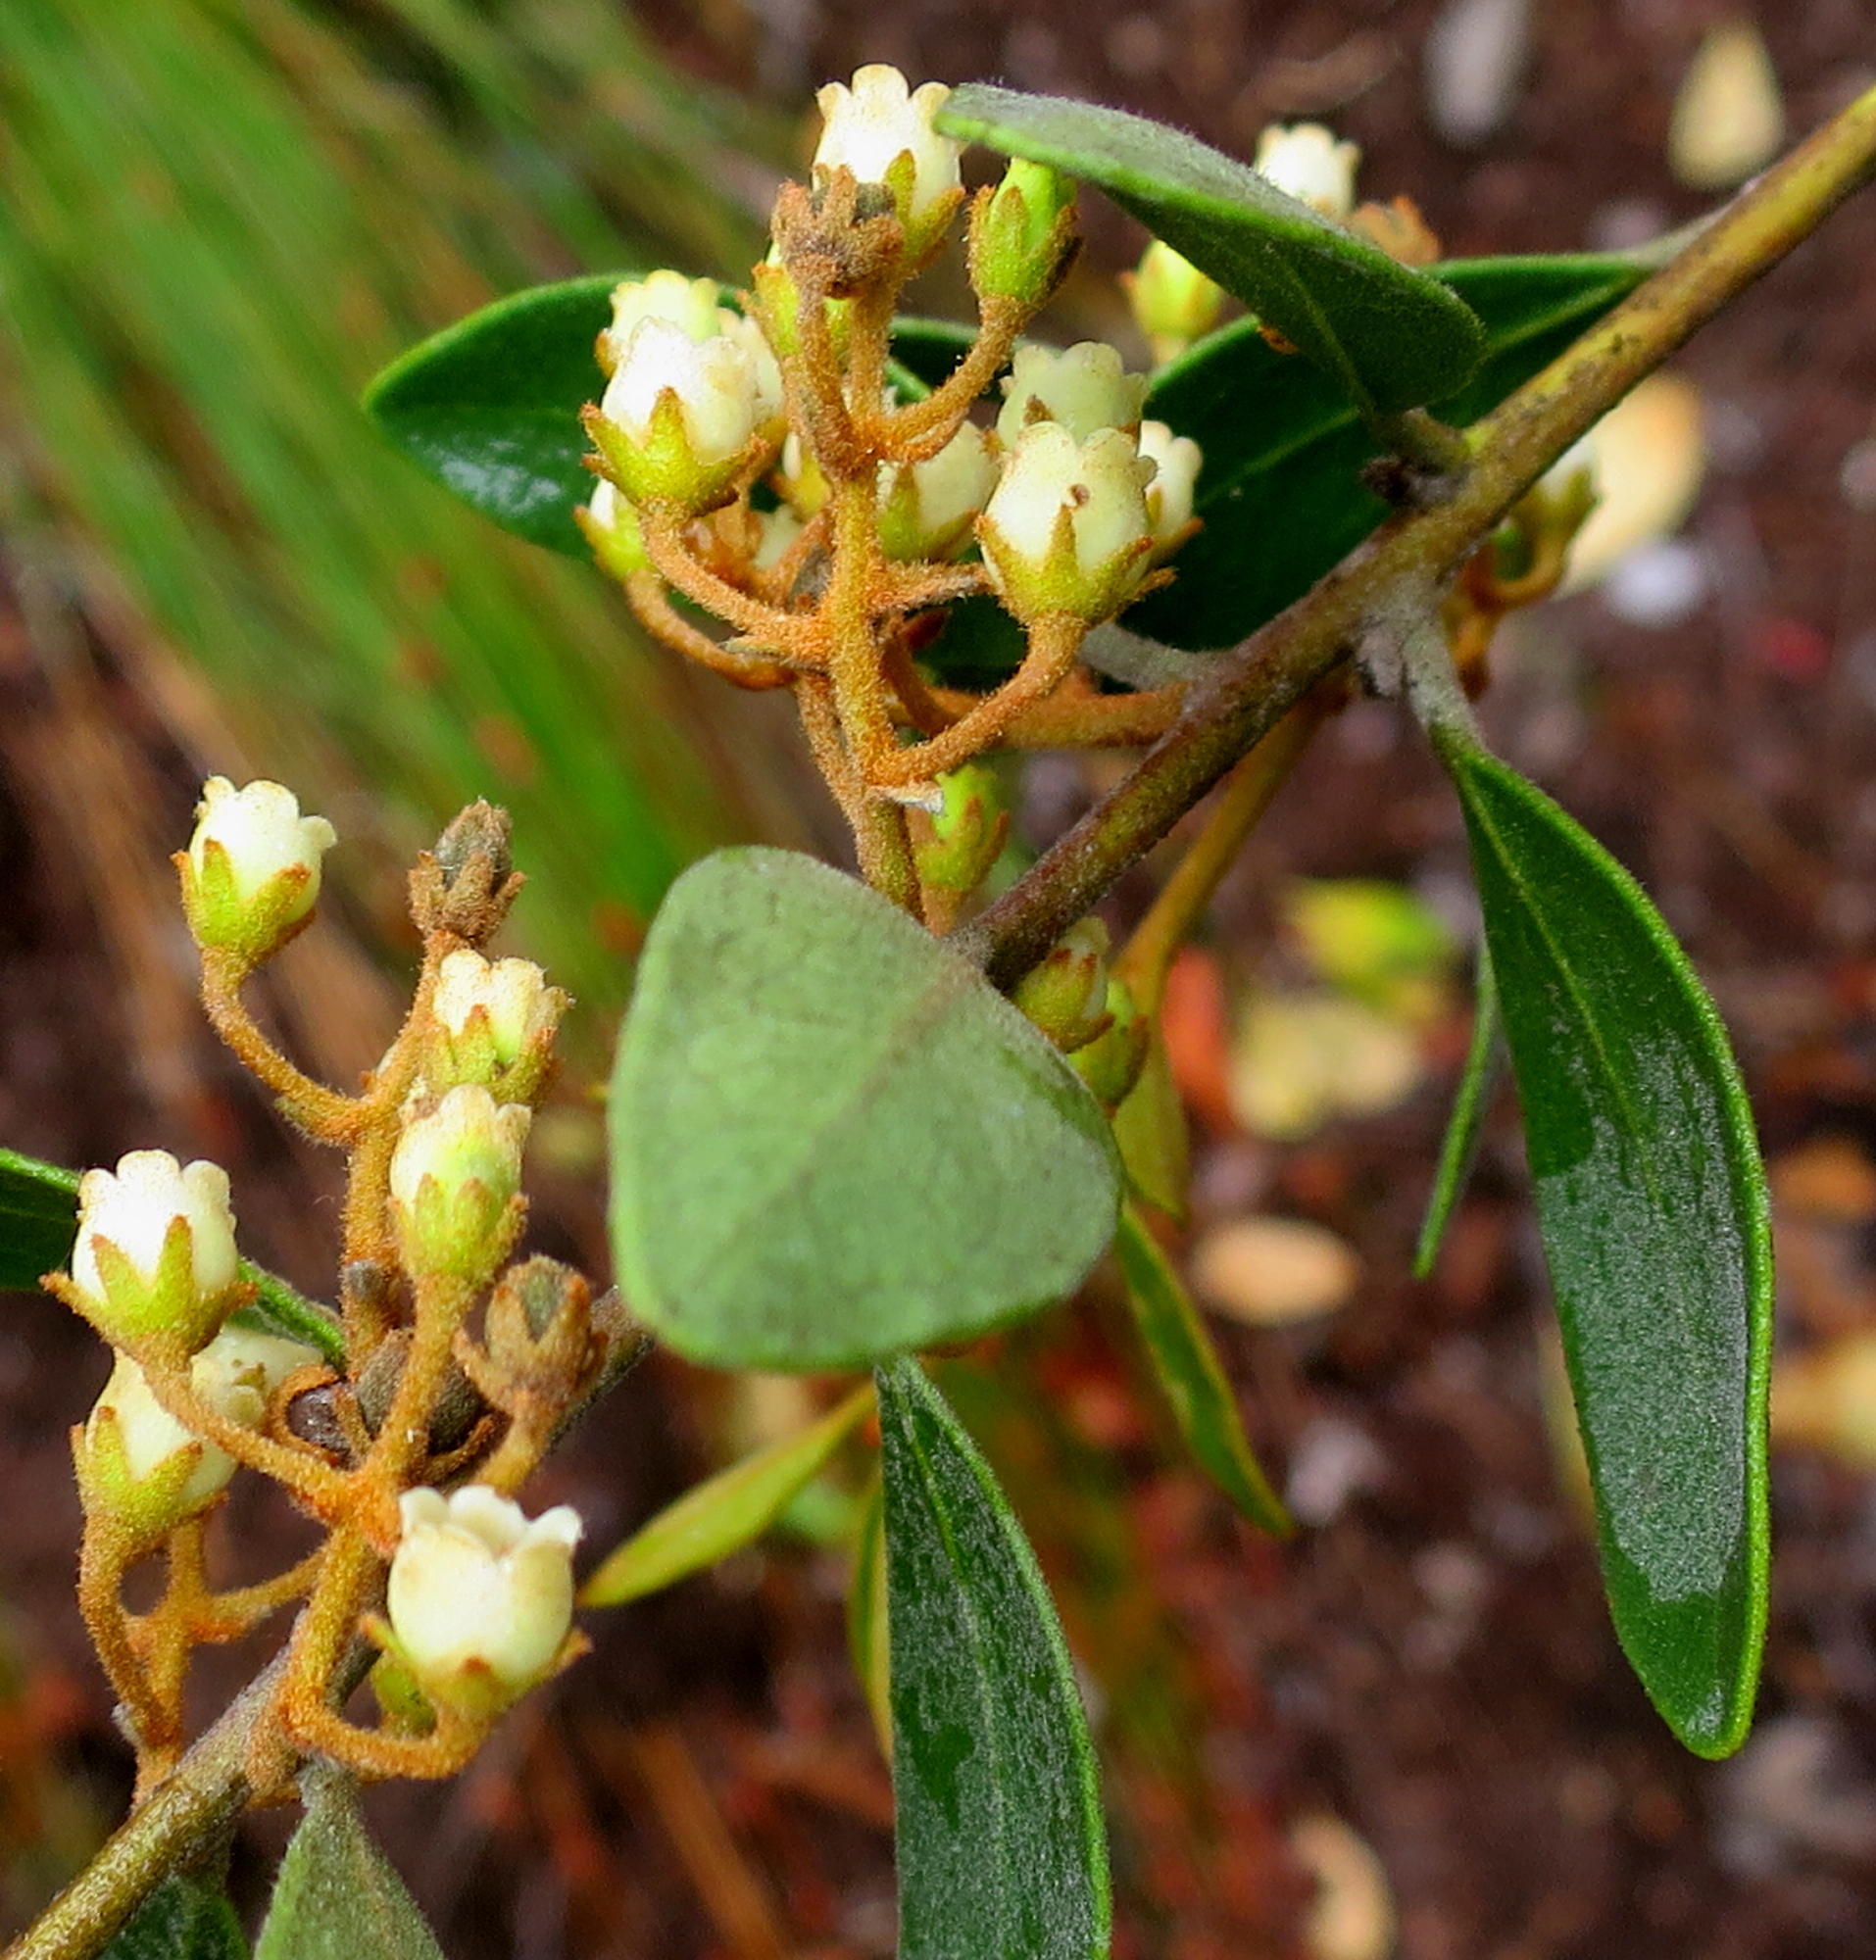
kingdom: Plantae
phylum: Tracheophyta
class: Magnoliopsida
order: Ericales
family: Ebenaceae
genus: Euclea
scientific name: Euclea polyandra
